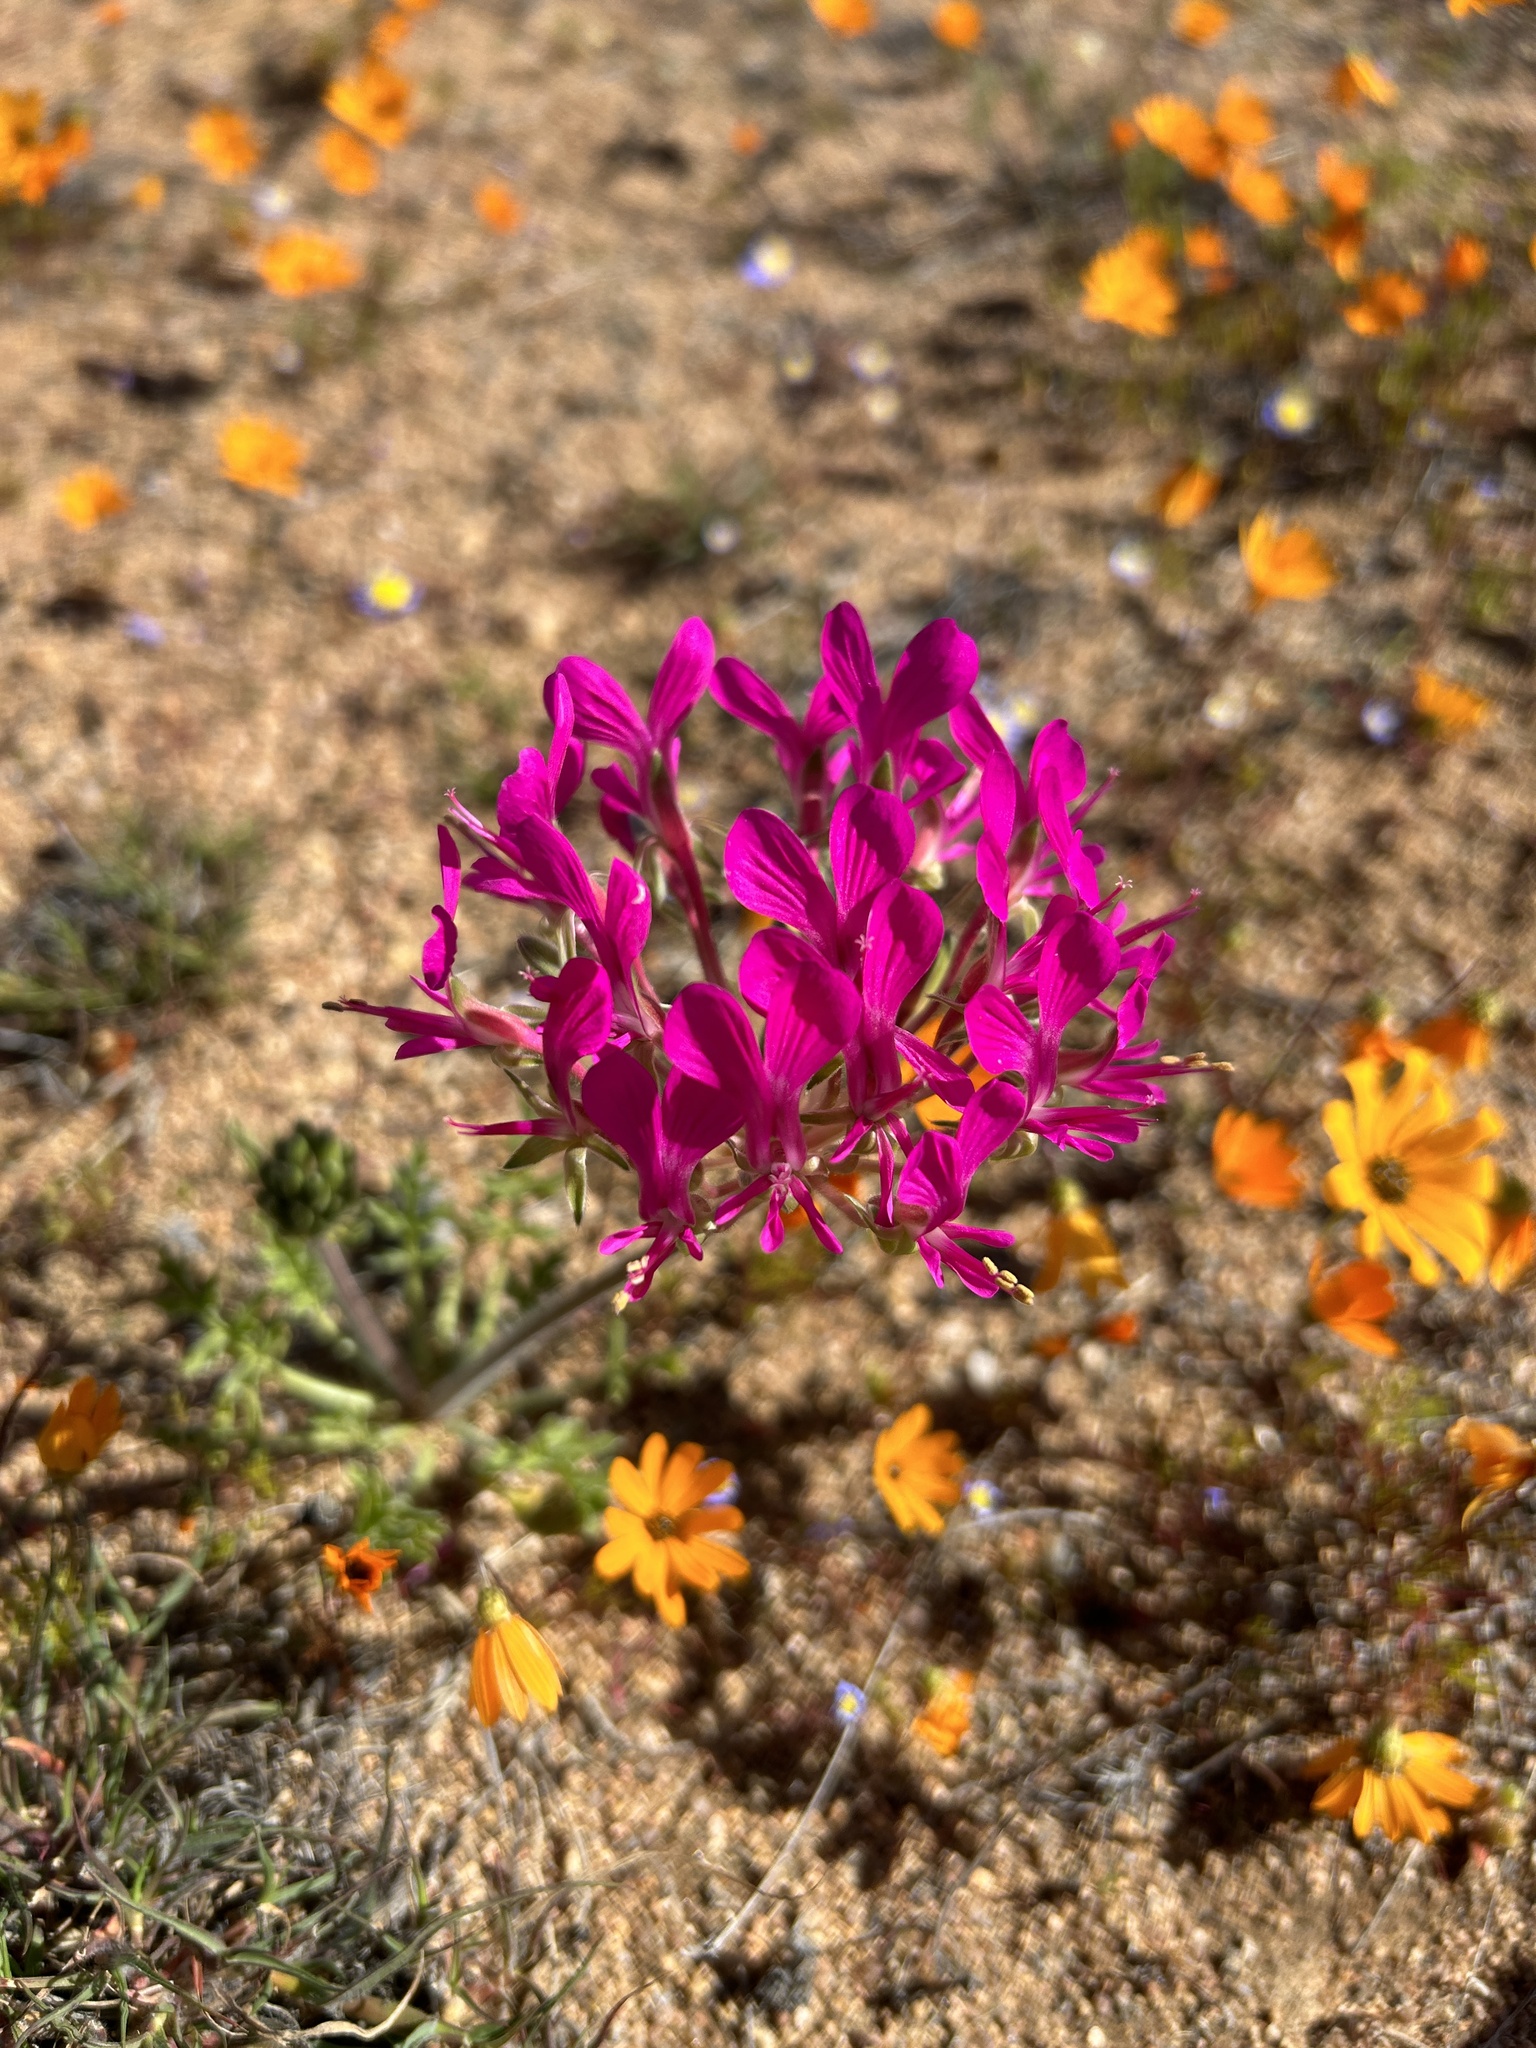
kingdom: Plantae
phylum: Tracheophyta
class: Magnoliopsida
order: Geraniales
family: Geraniaceae
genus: Pelargonium
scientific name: Pelargonium incrassatum
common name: Namaqualand beauty
